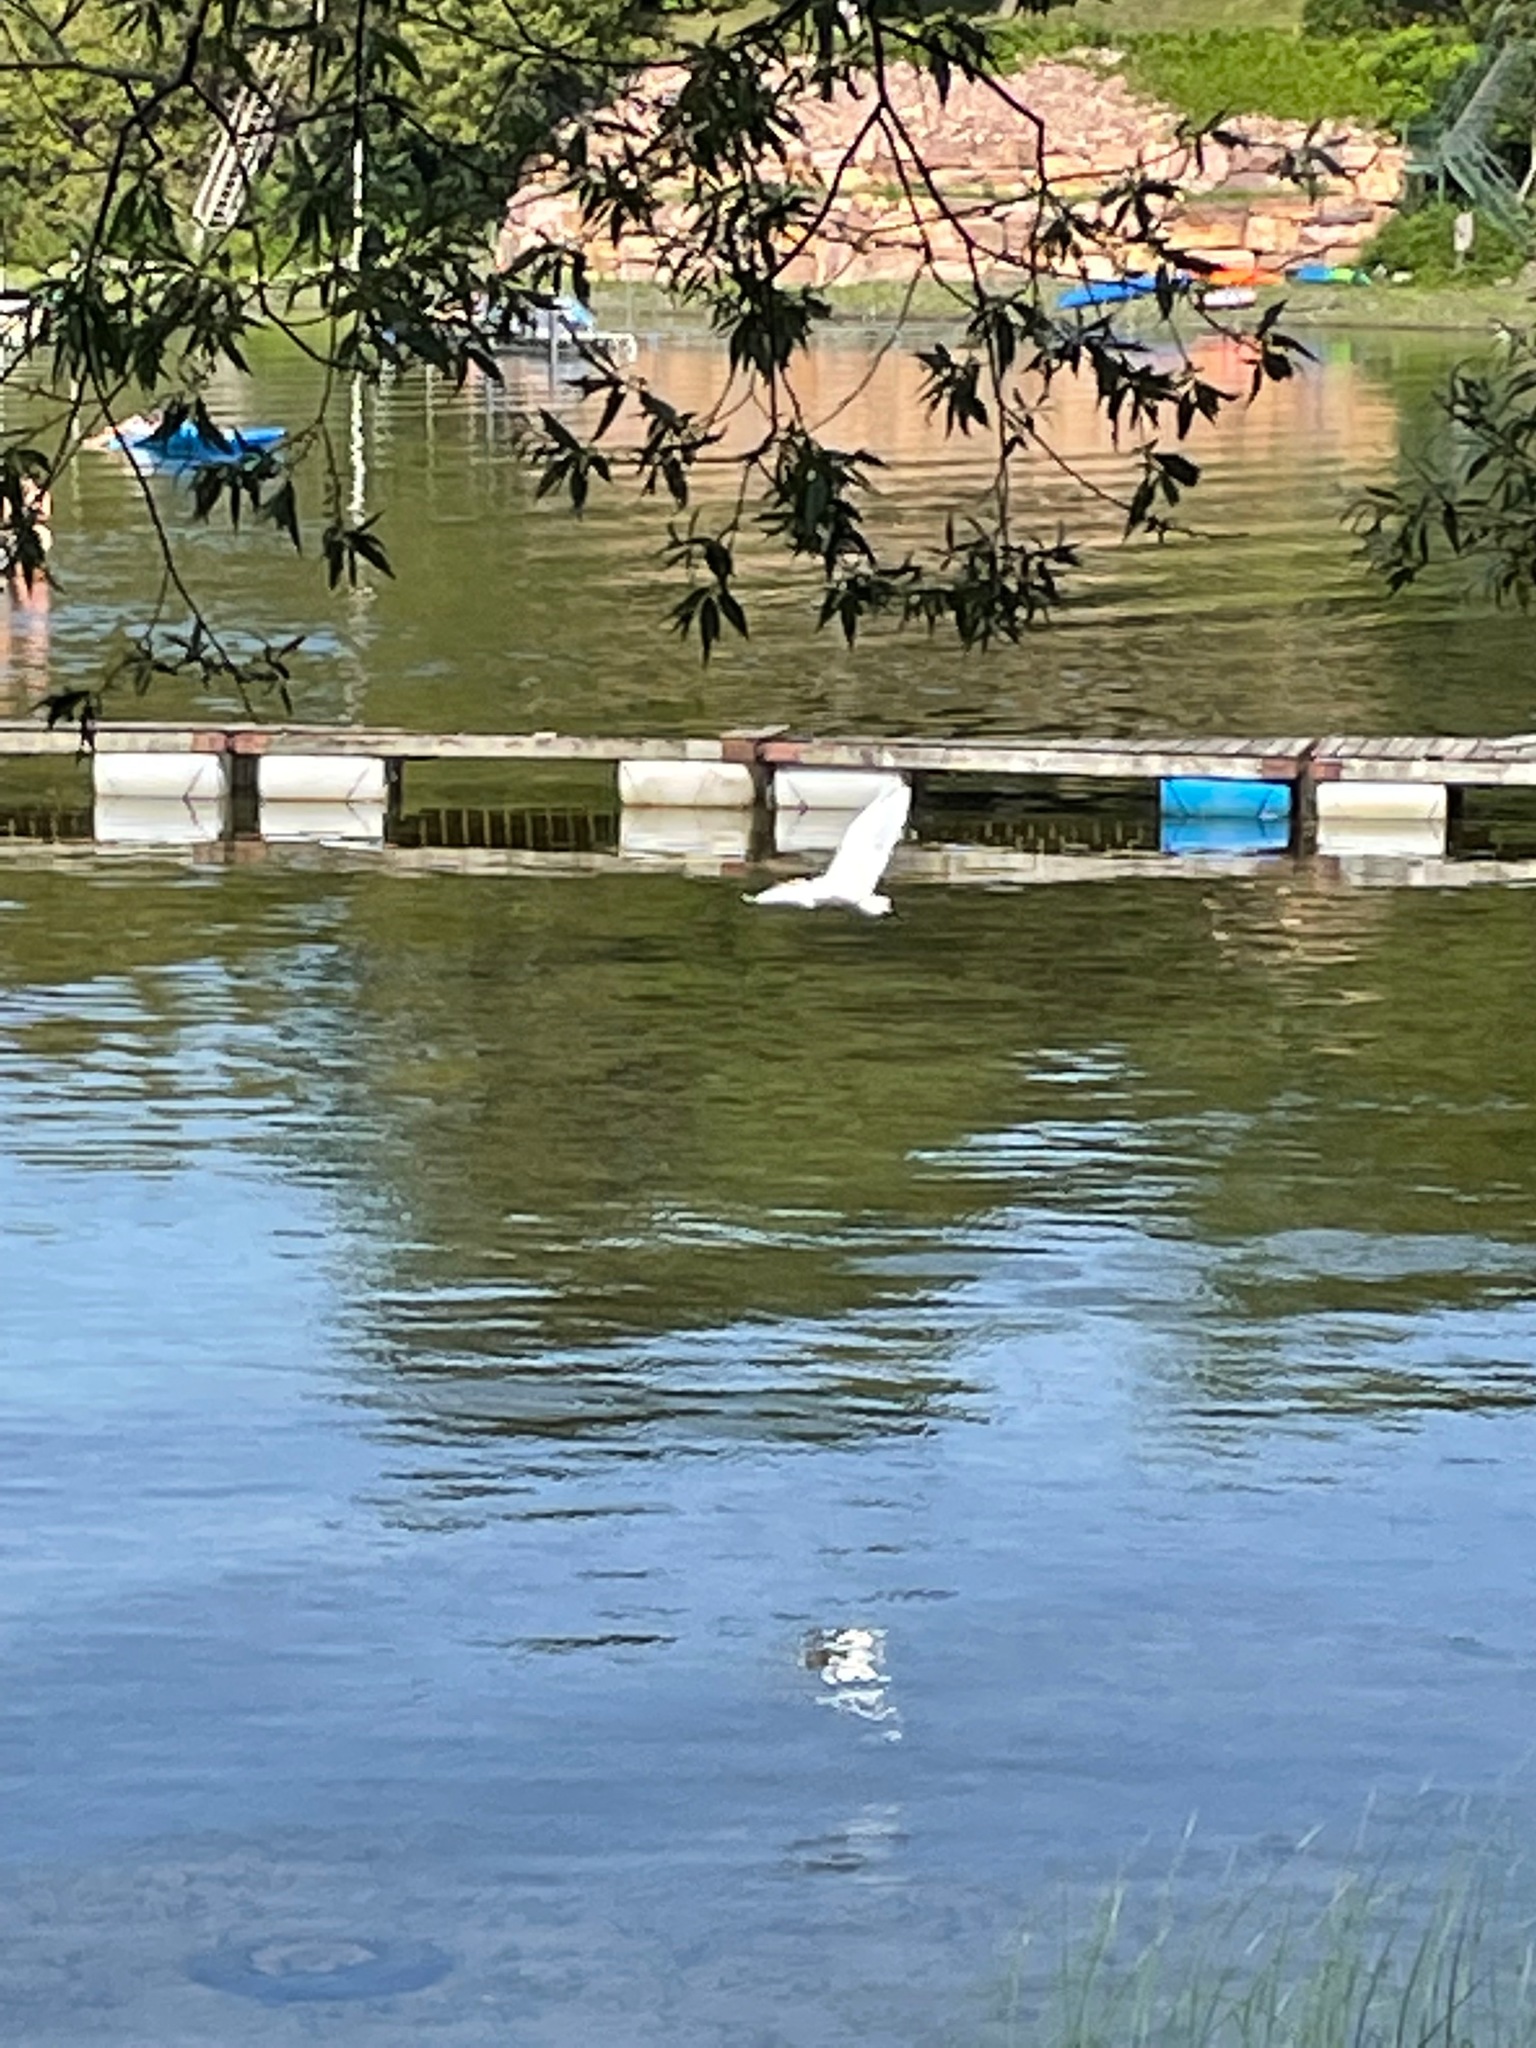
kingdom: Animalia
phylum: Chordata
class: Aves
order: Pelecaniformes
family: Ardeidae
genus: Ardea
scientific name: Ardea alba
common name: Great egret
